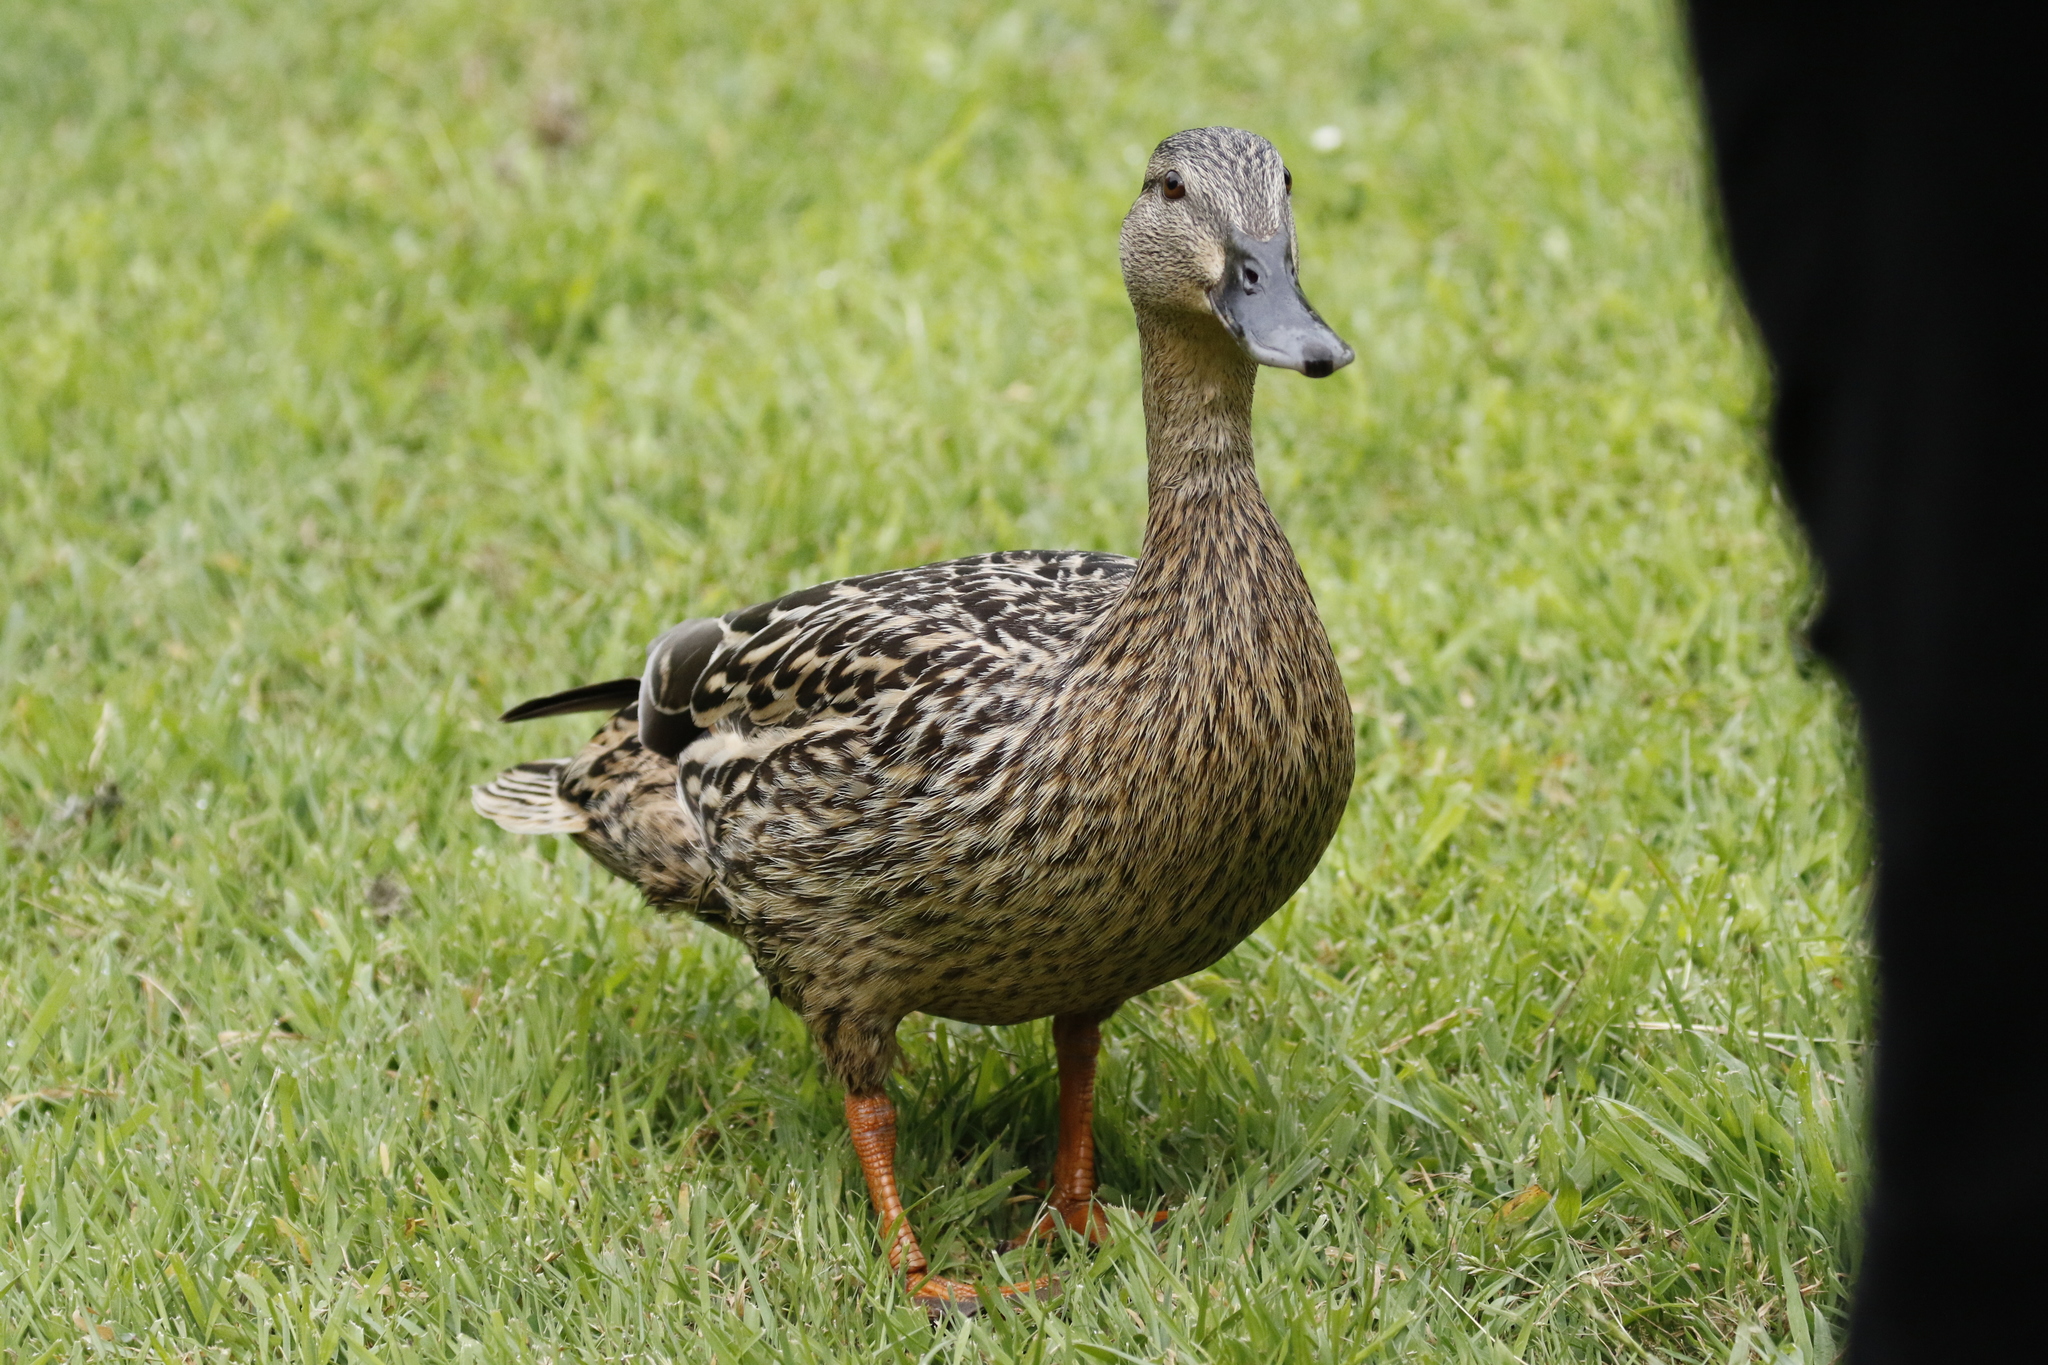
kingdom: Animalia
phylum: Chordata
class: Aves
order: Anseriformes
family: Anatidae
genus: Anas
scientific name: Anas platyrhynchos
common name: Mallard
